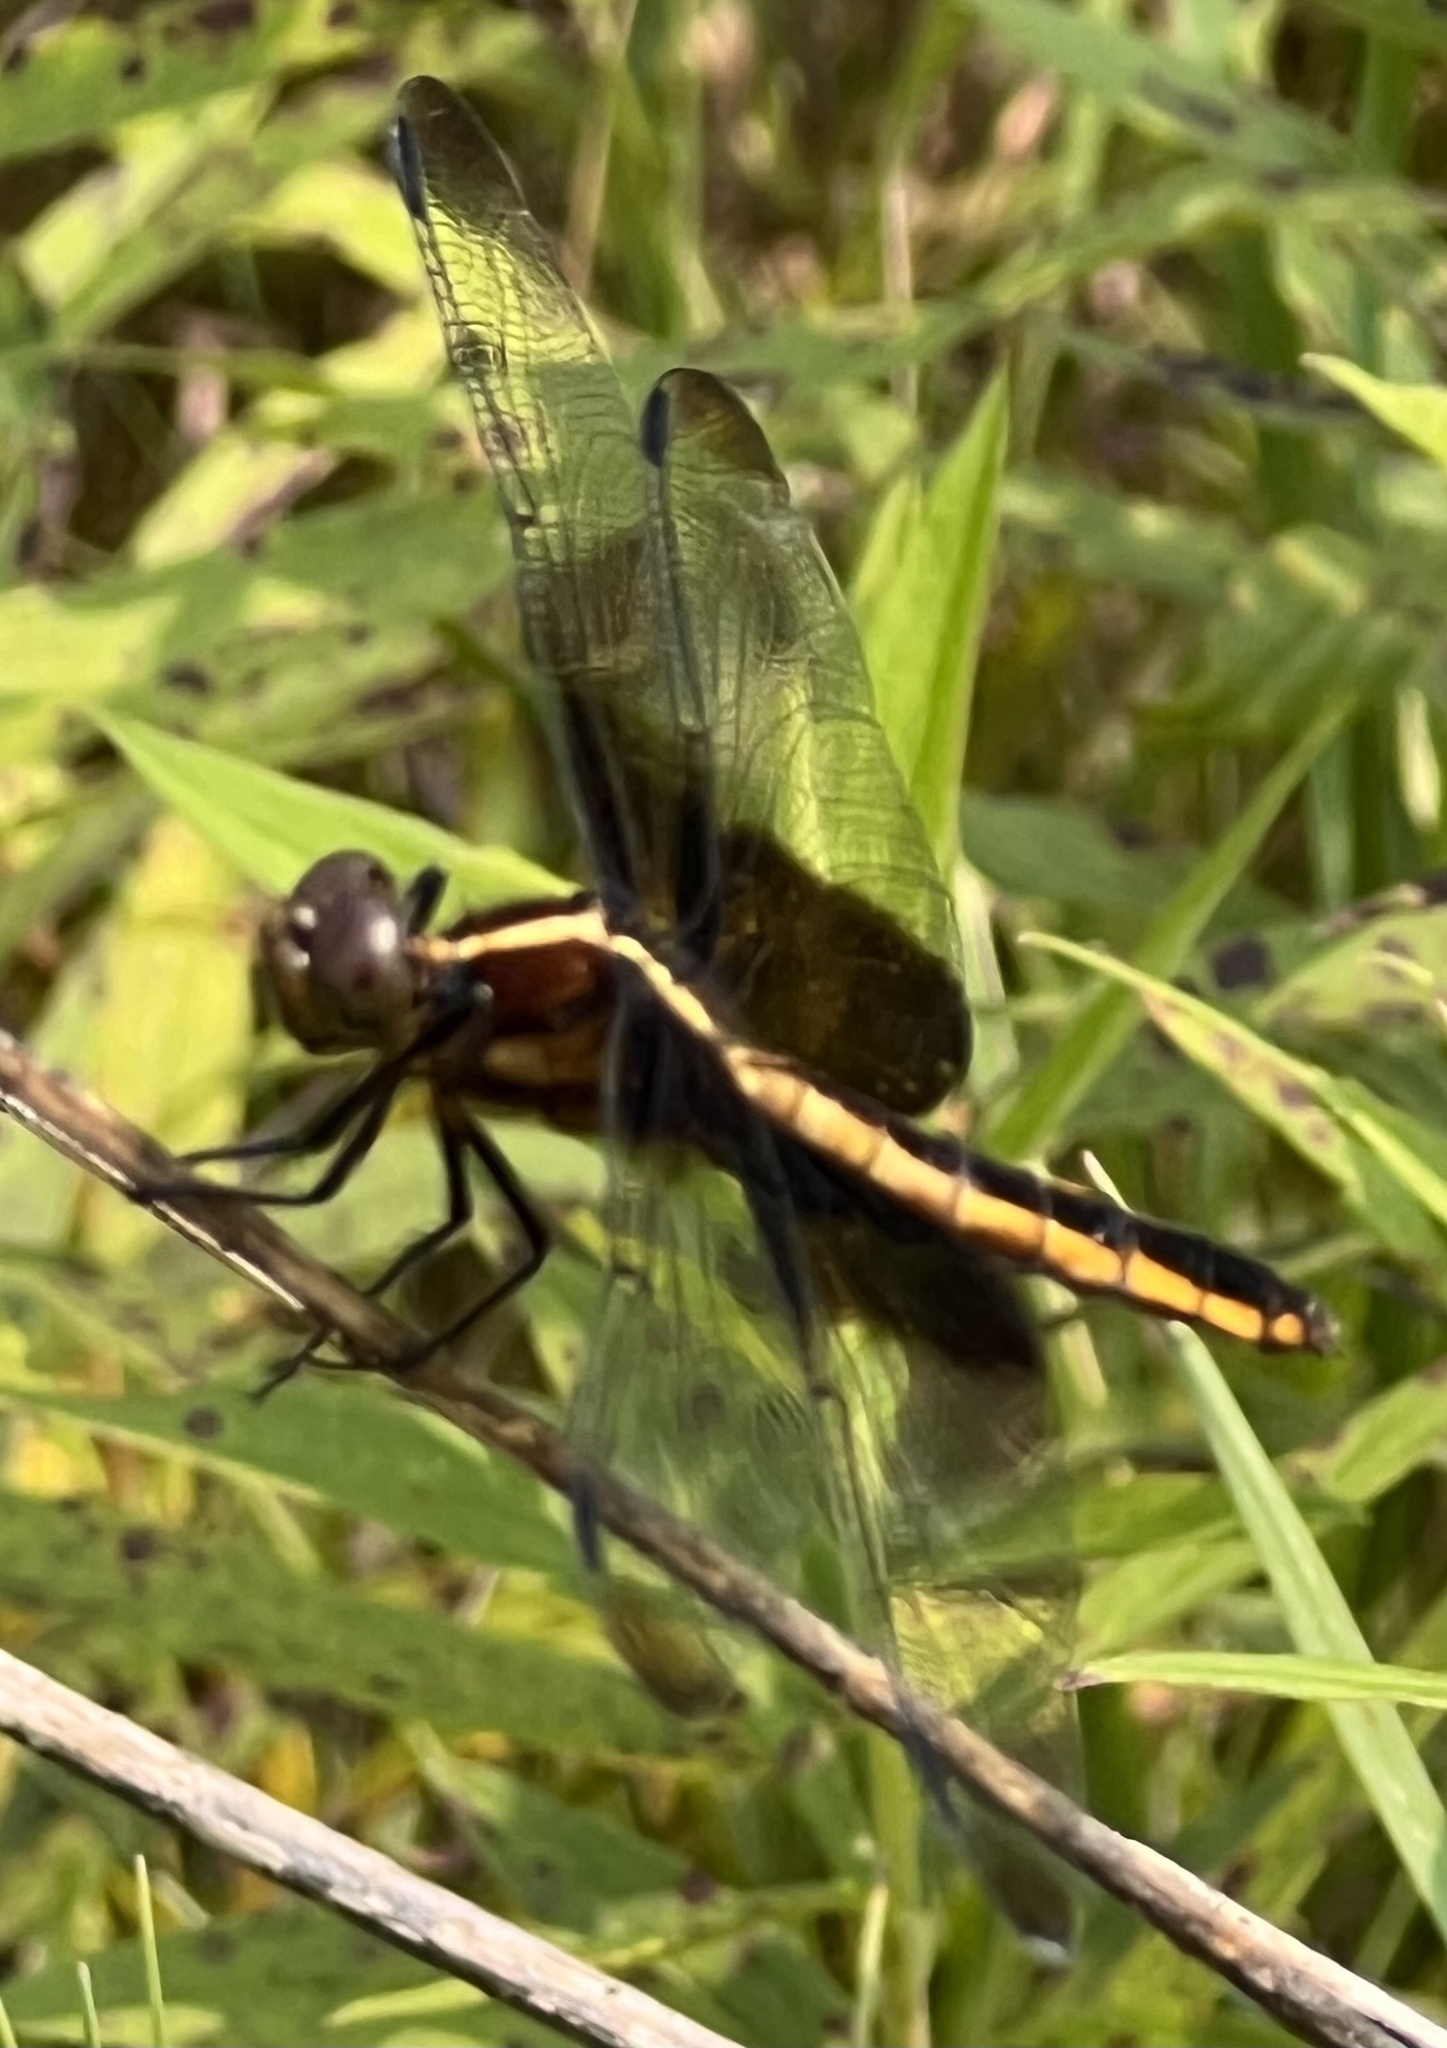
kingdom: Animalia
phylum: Arthropoda
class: Insecta
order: Odonata
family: Libellulidae
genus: Libellula
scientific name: Libellula luctuosa
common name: Widow skimmer
